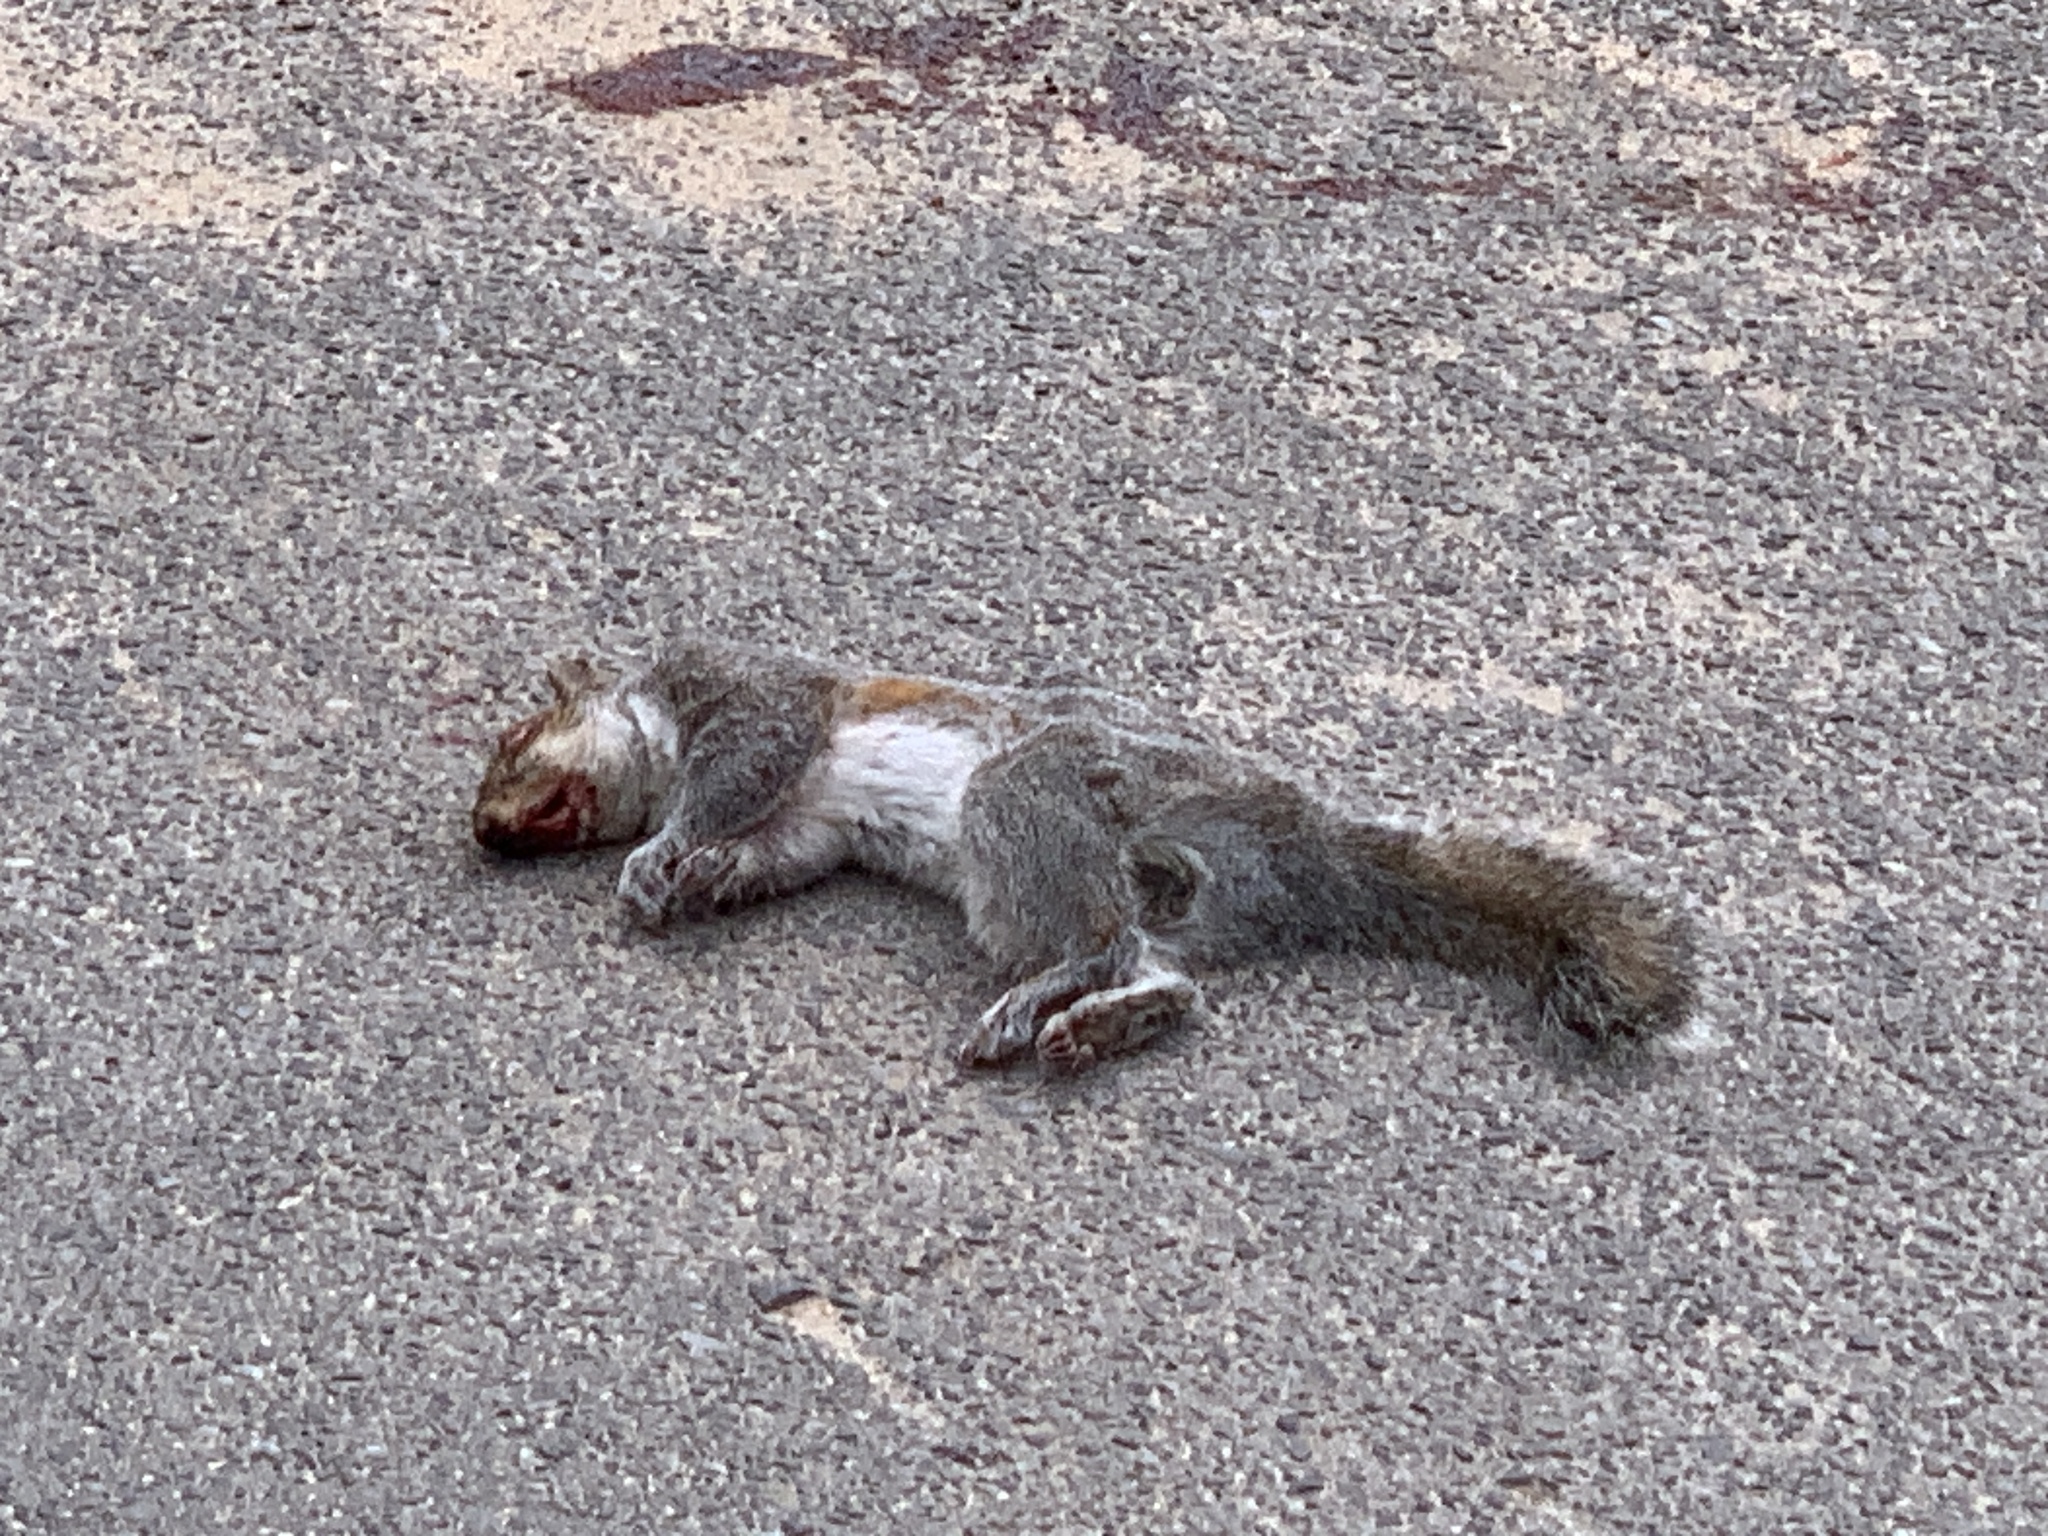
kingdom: Animalia
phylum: Chordata
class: Mammalia
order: Rodentia
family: Sciuridae
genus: Sciurus
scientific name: Sciurus carolinensis
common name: Eastern gray squirrel
